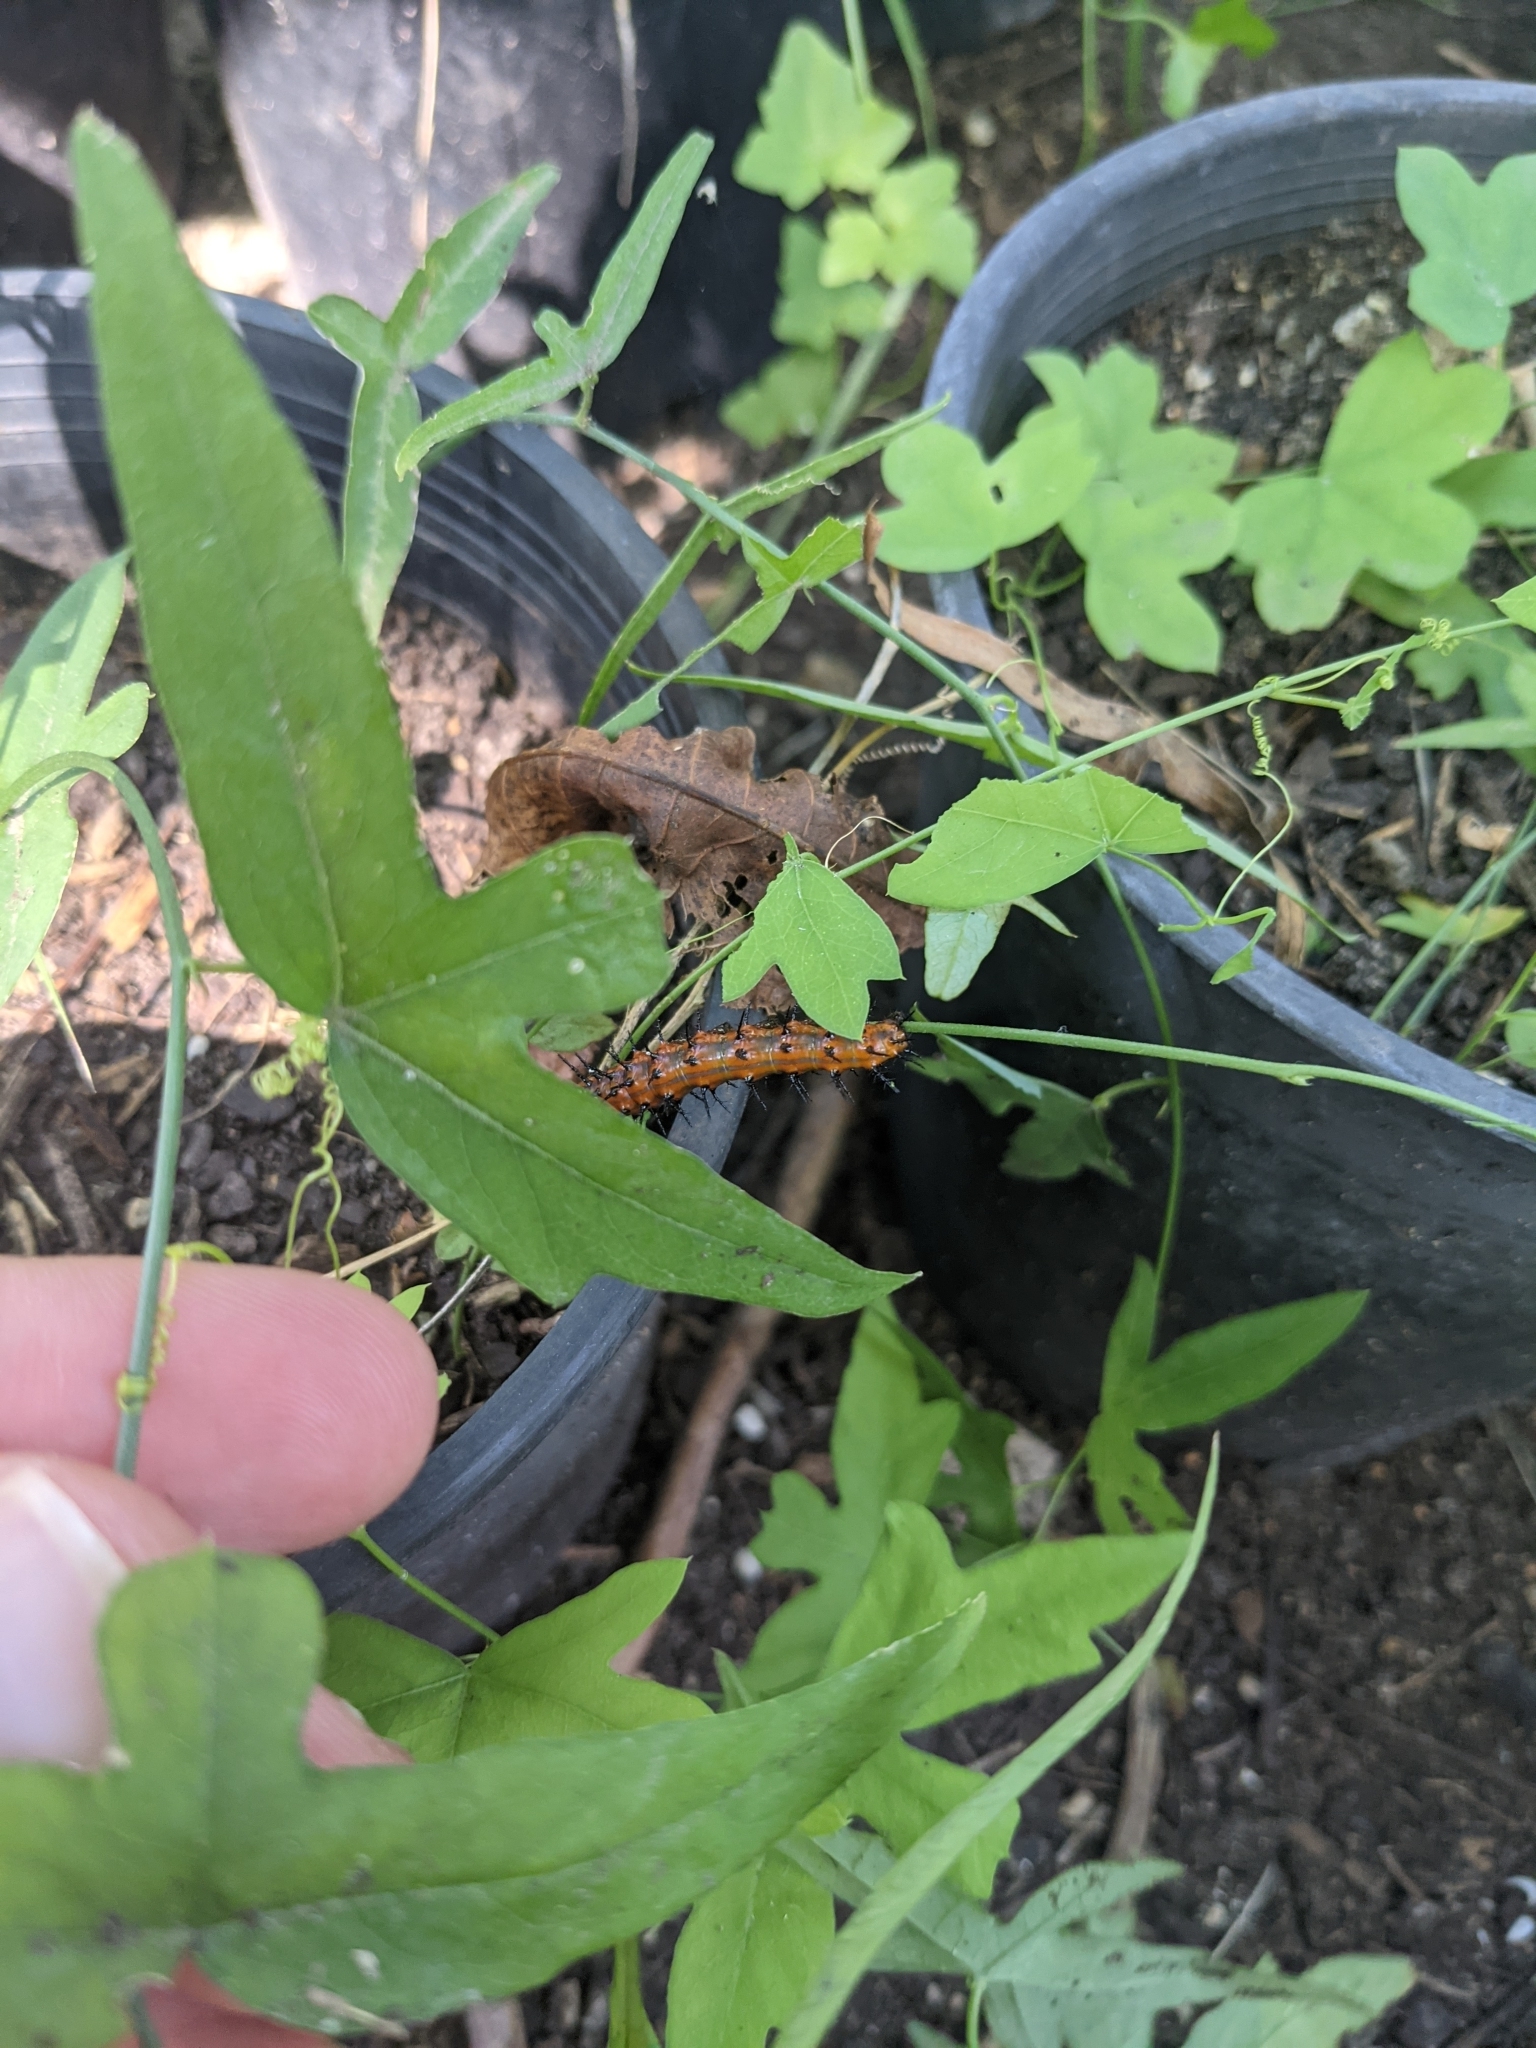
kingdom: Animalia
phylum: Arthropoda
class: Insecta
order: Lepidoptera
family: Nymphalidae
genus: Dione
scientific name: Dione vanillae
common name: Gulf fritillary
